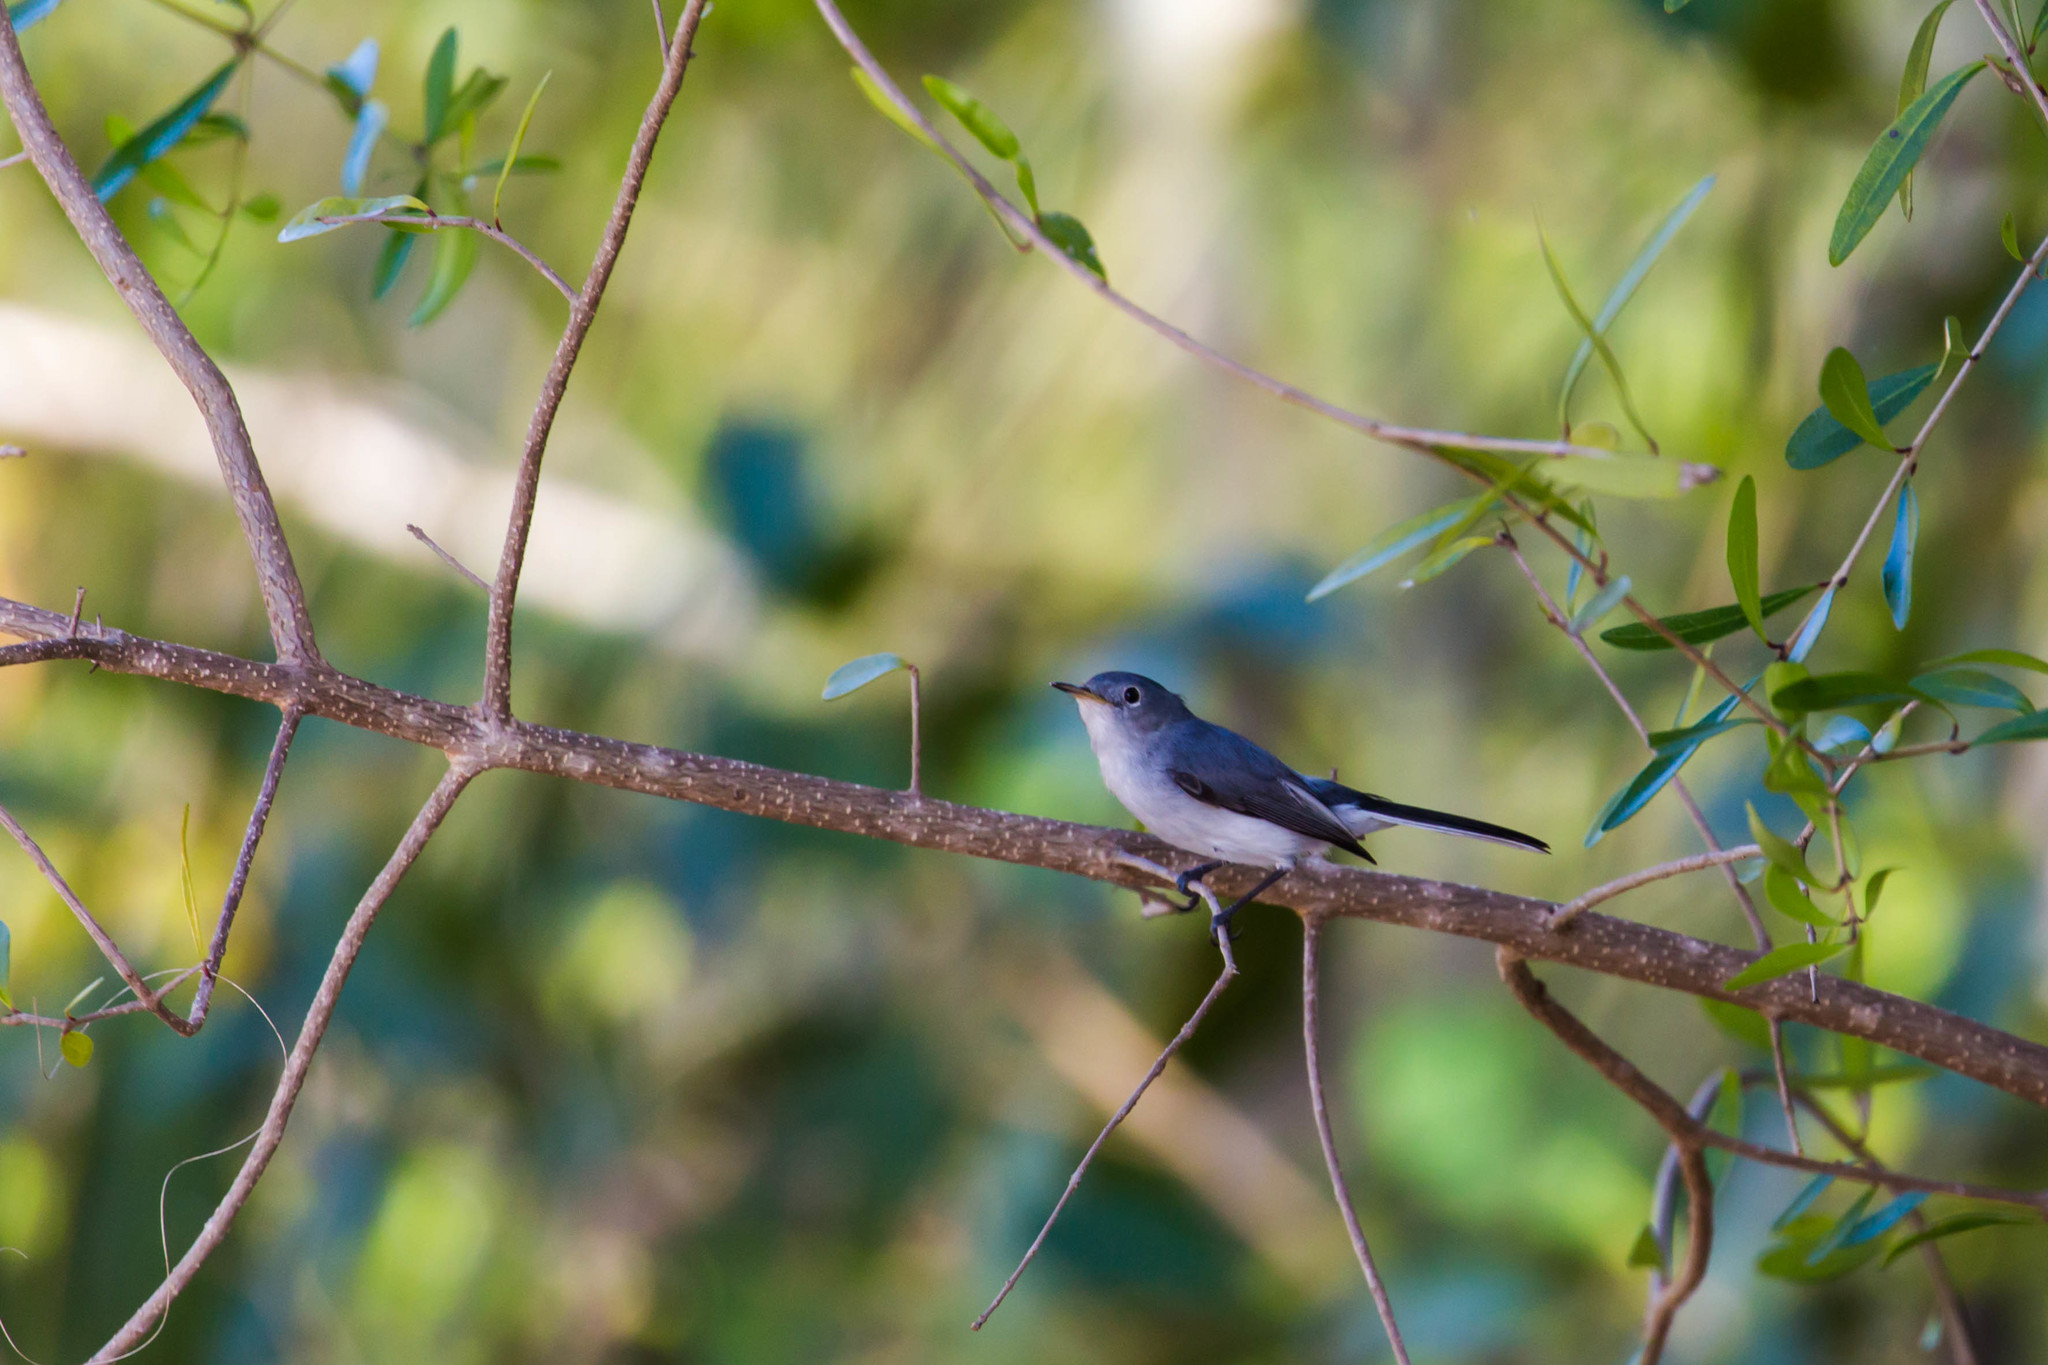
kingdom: Animalia
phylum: Chordata
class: Aves
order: Passeriformes
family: Polioptilidae
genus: Polioptila
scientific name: Polioptila caerulea
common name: Blue-gray gnatcatcher
